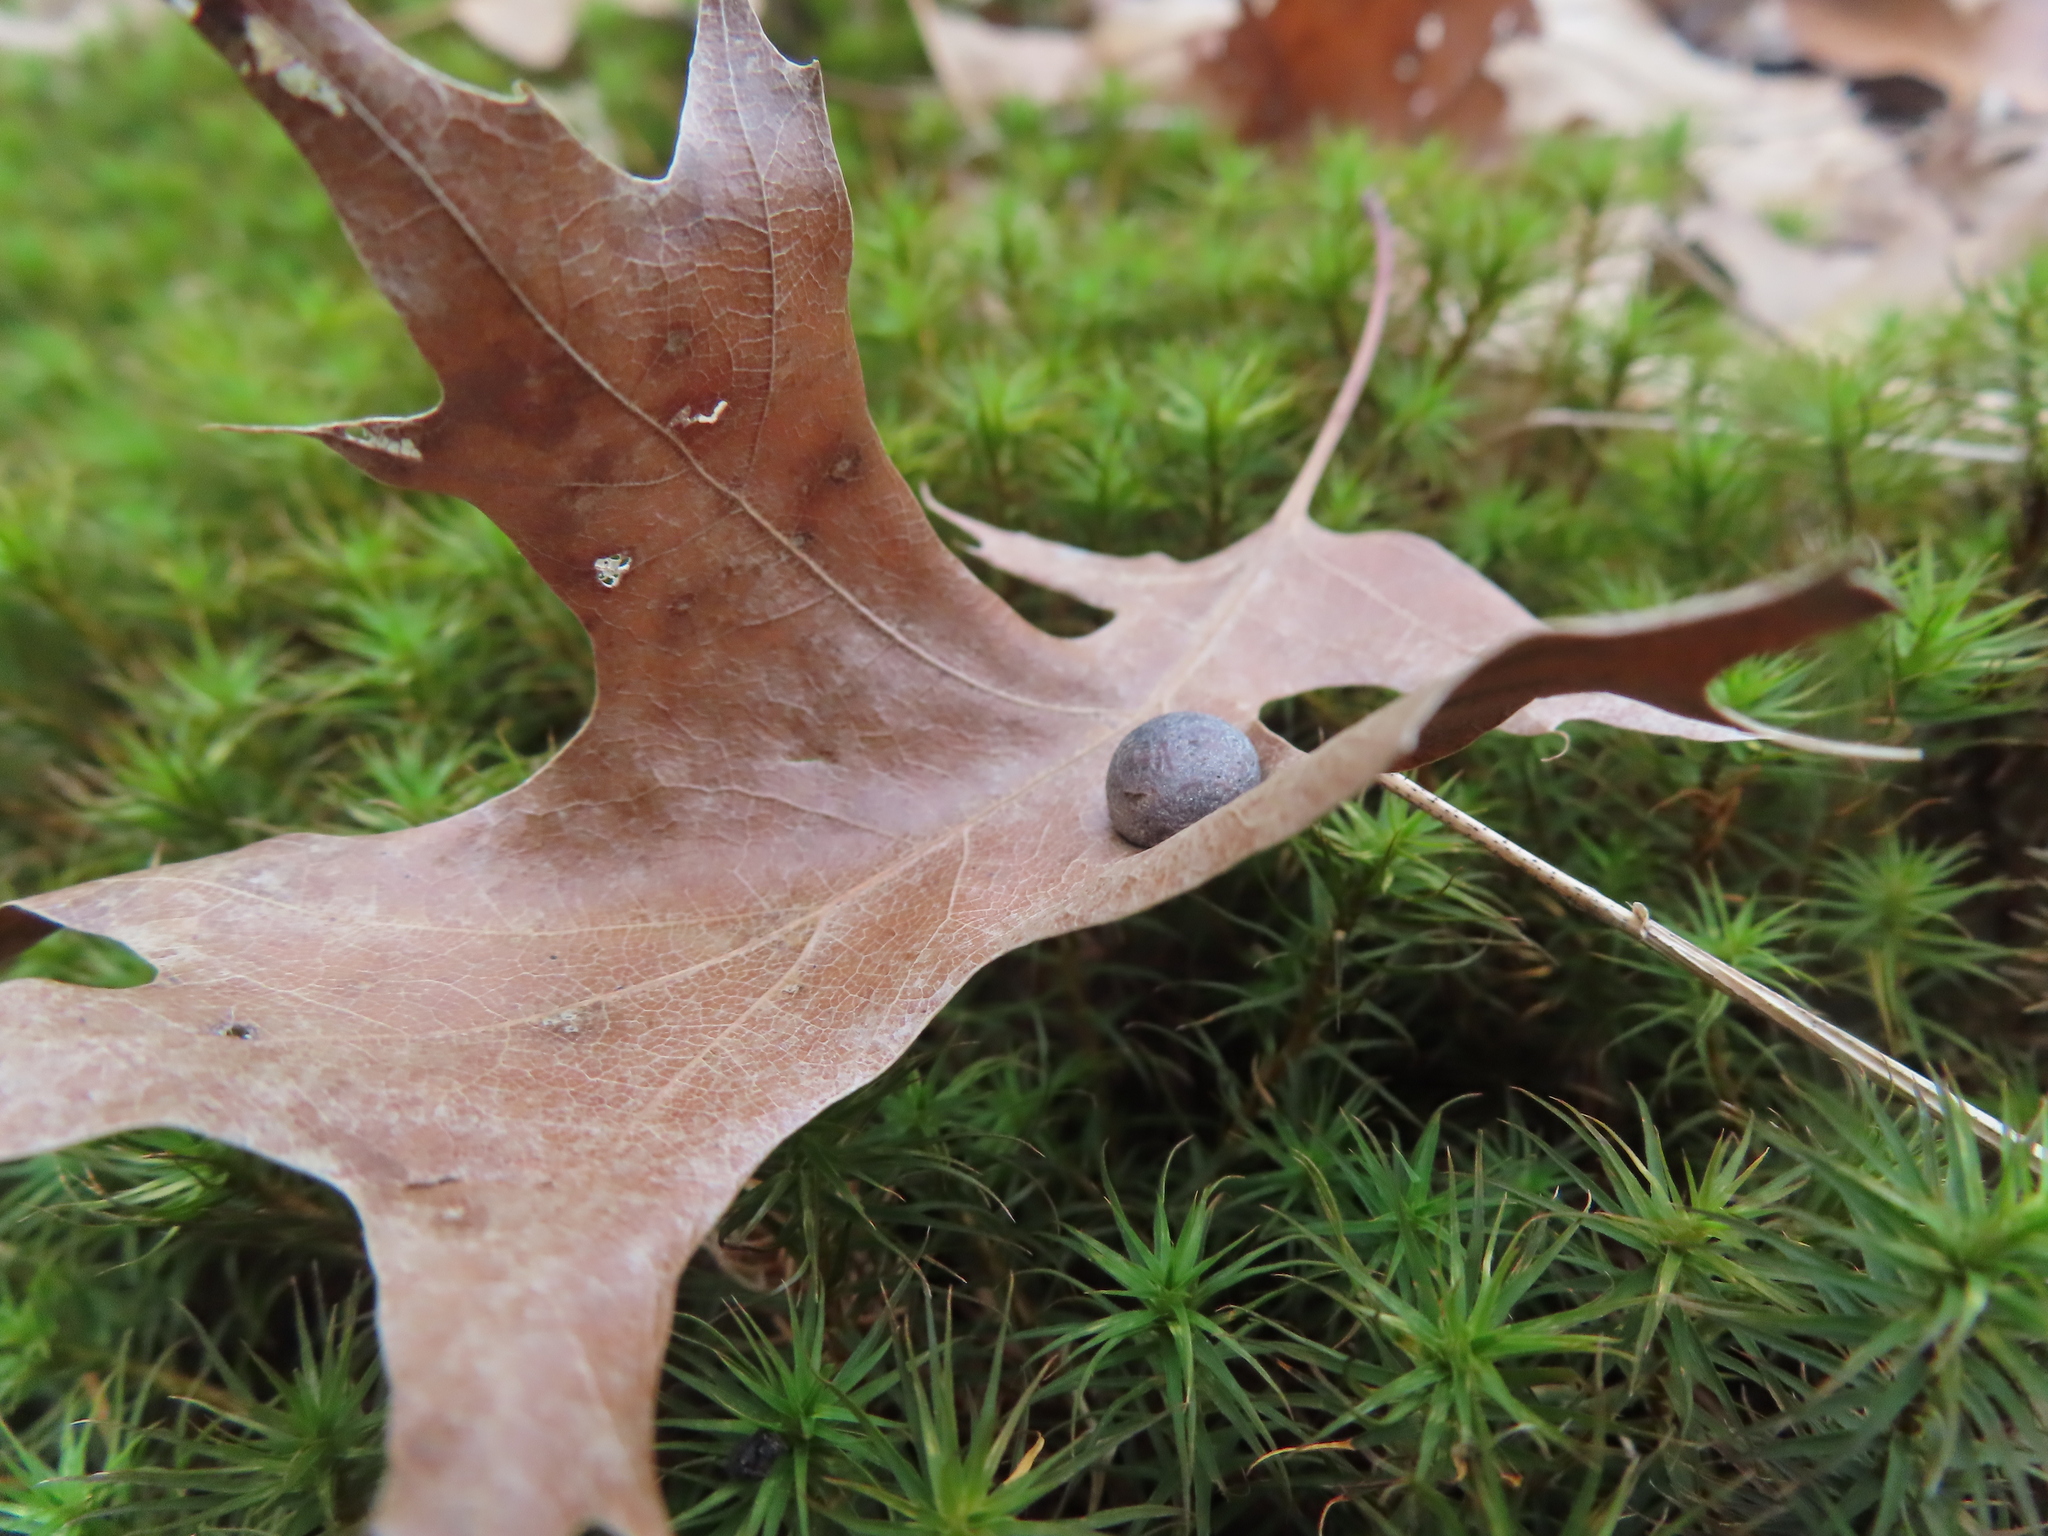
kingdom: Animalia
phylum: Arthropoda
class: Insecta
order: Diptera
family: Cecidomyiidae
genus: Polystepha
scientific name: Polystepha pilulae
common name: Oak leaf gall midge
